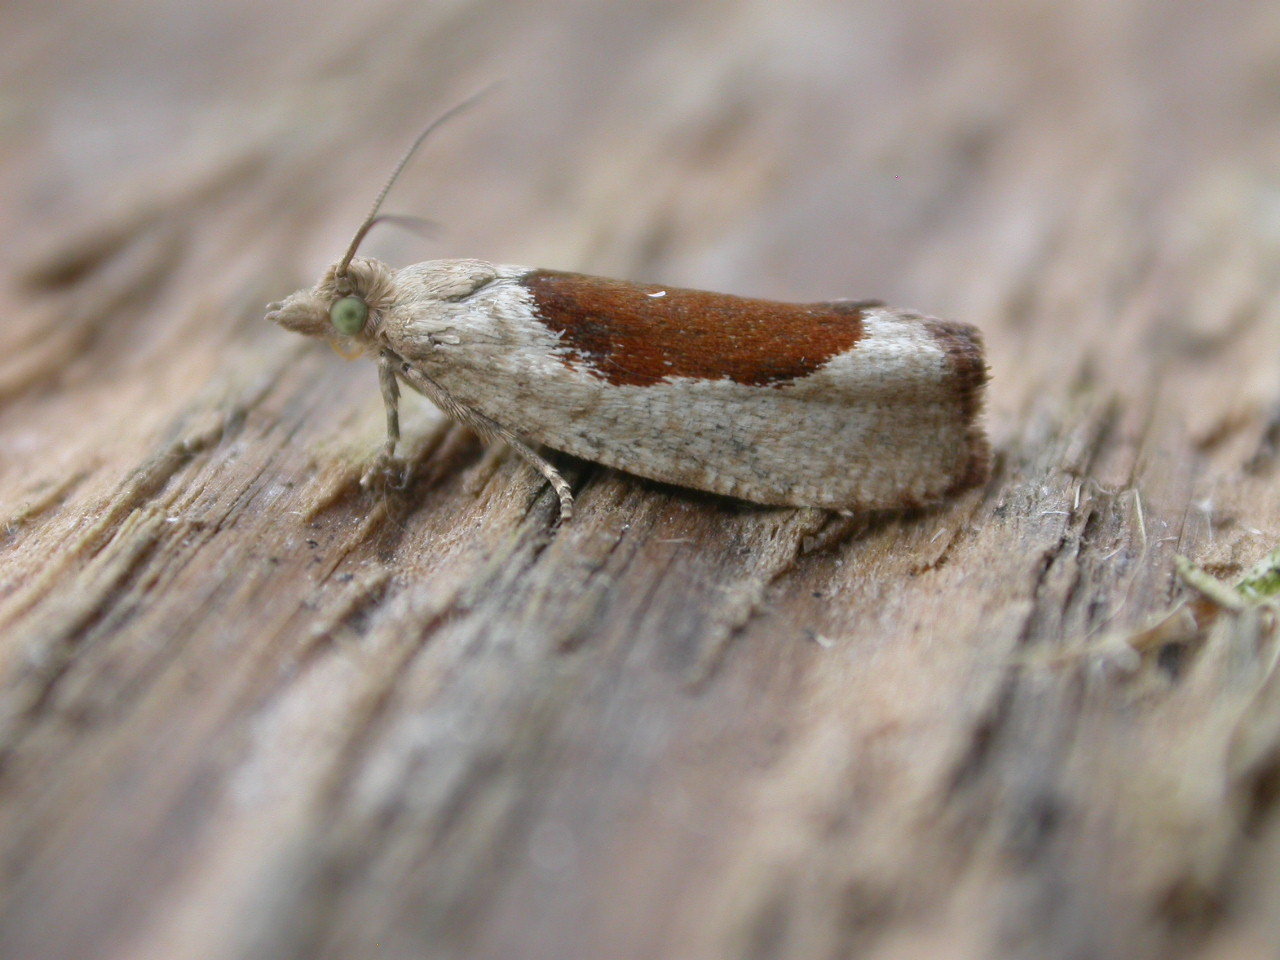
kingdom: Animalia
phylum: Arthropoda
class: Insecta
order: Lepidoptera
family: Tortricidae
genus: Epinotia
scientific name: Epinotia solandriana
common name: Variable bell
